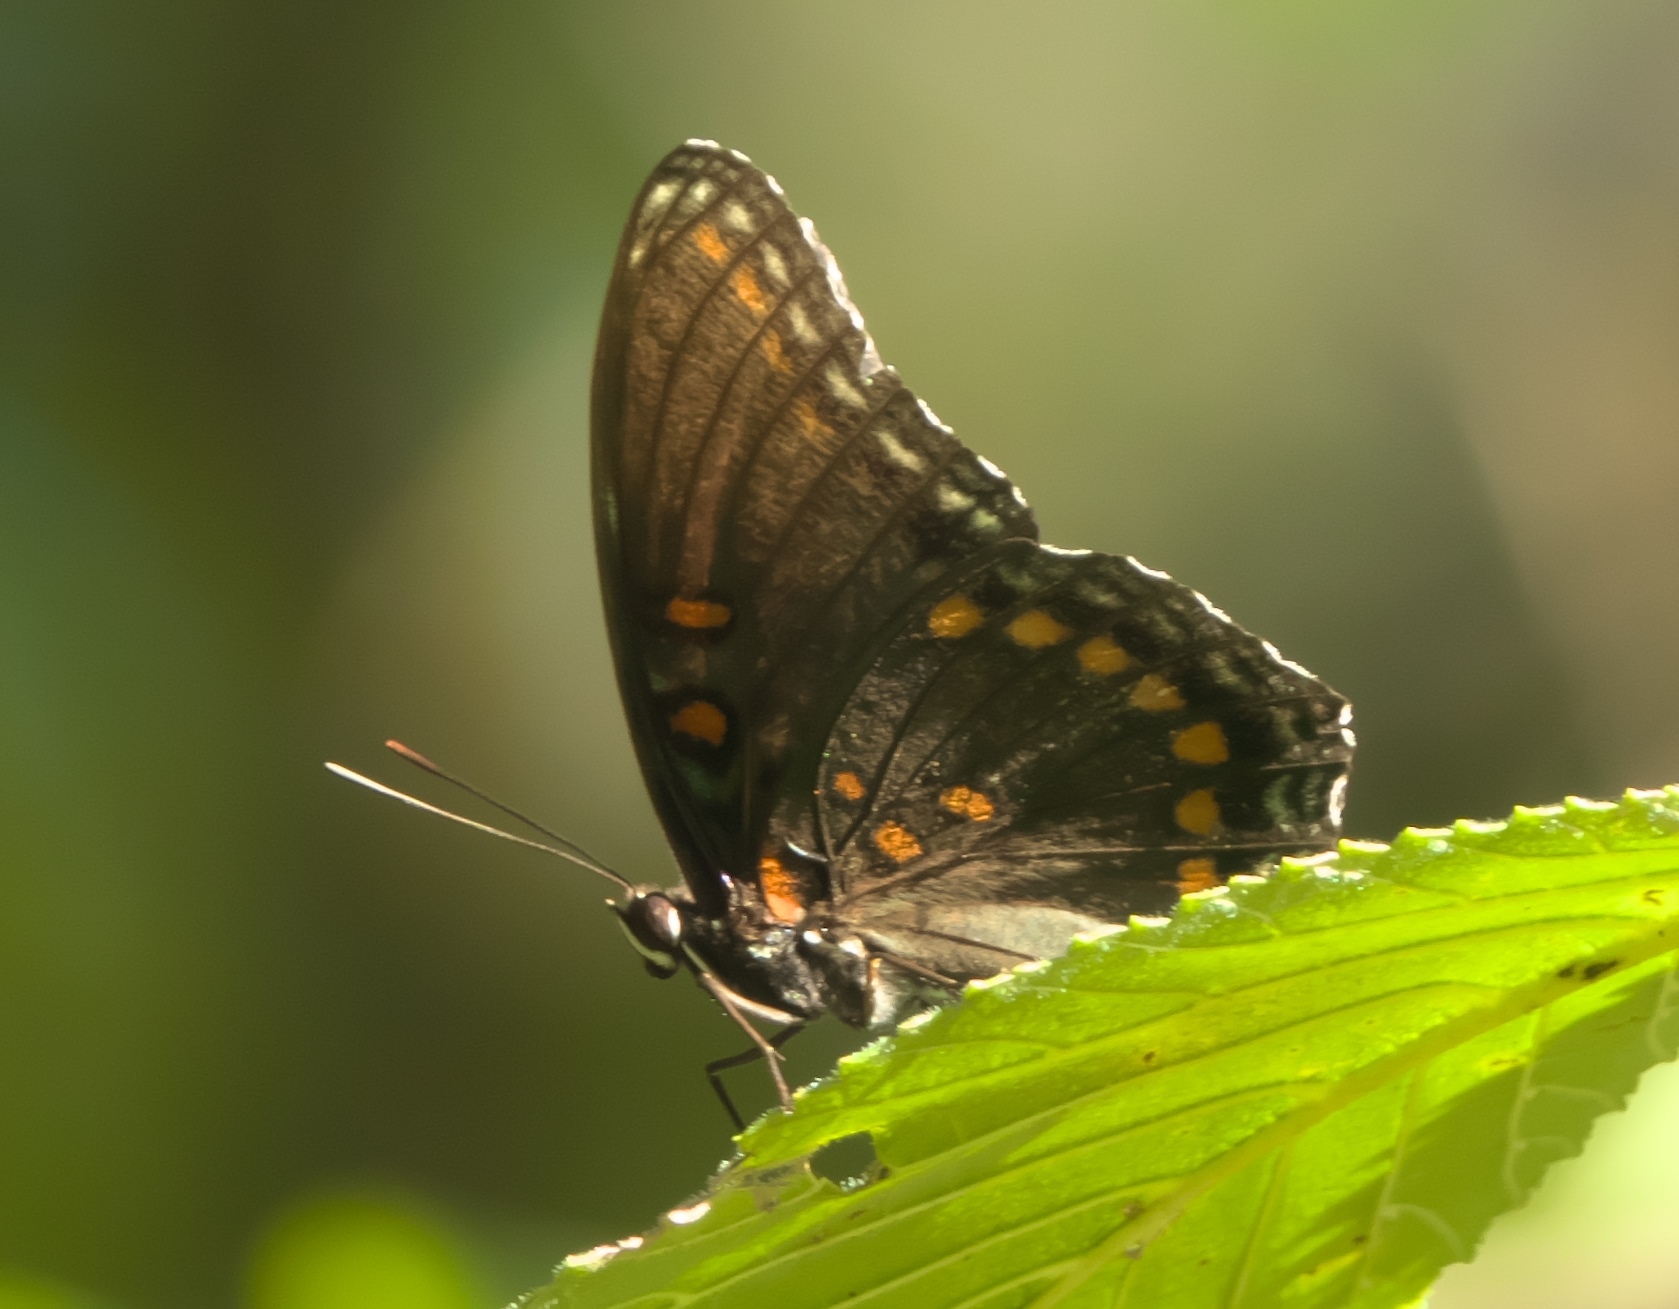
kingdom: Animalia
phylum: Arthropoda
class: Insecta
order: Lepidoptera
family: Nymphalidae
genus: Limenitis
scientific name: Limenitis astyanax
